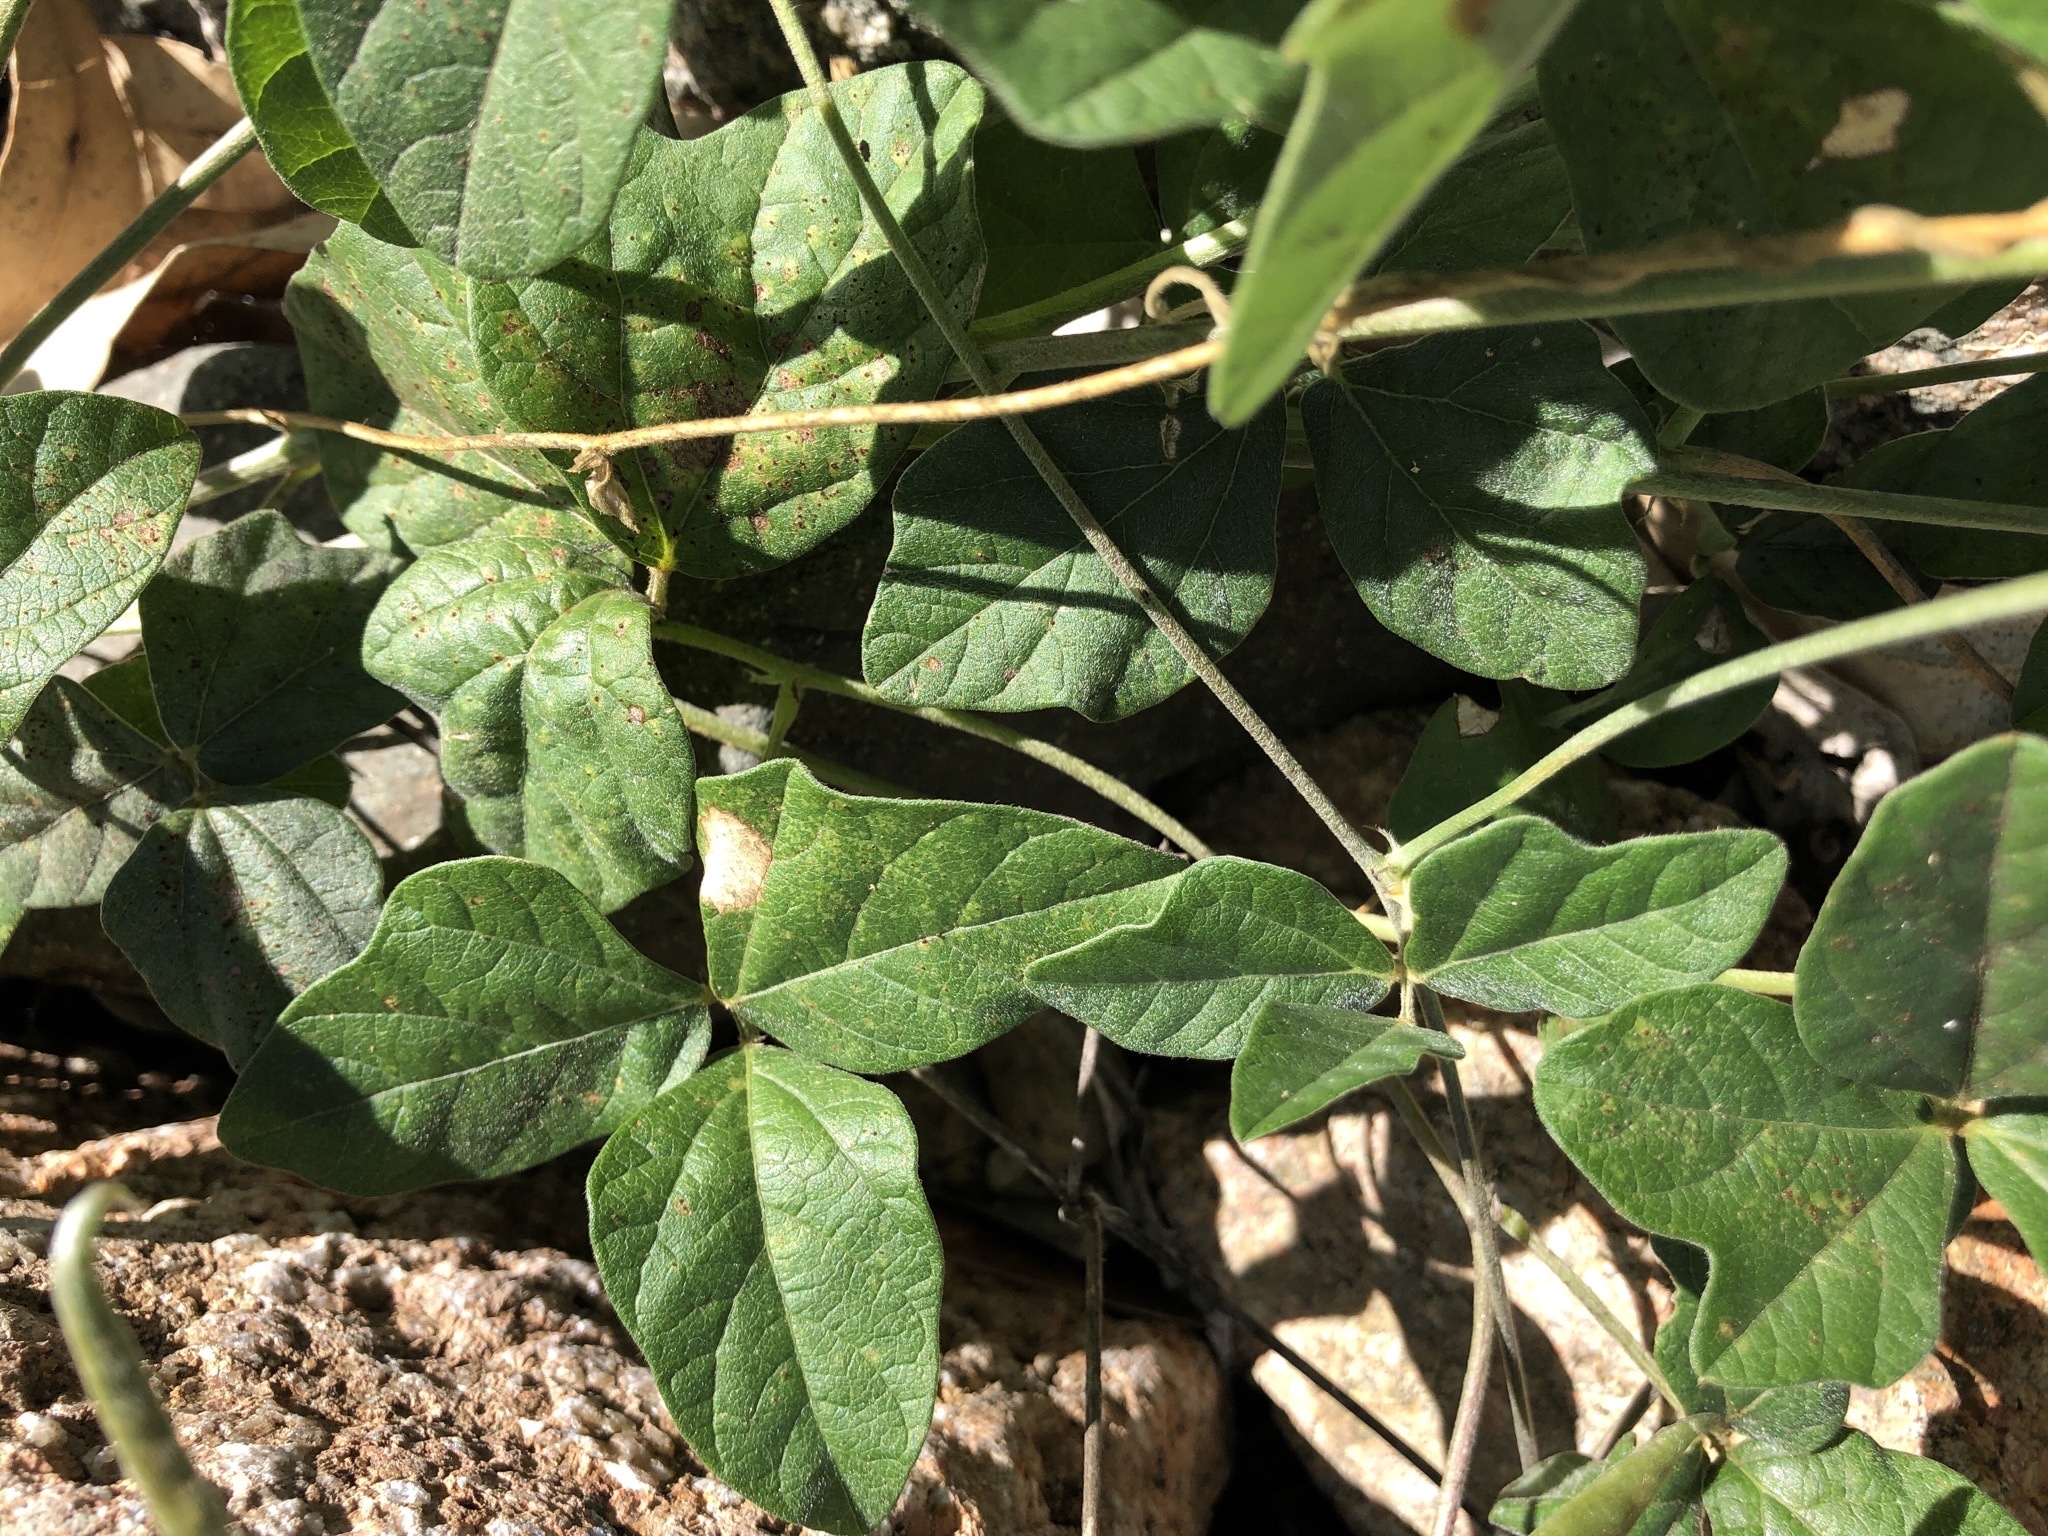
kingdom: Plantae
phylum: Tracheophyta
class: Magnoliopsida
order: Fabales
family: Fabaceae
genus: Macroptilium
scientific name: Macroptilium atropurpureum
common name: Purple bushbean
